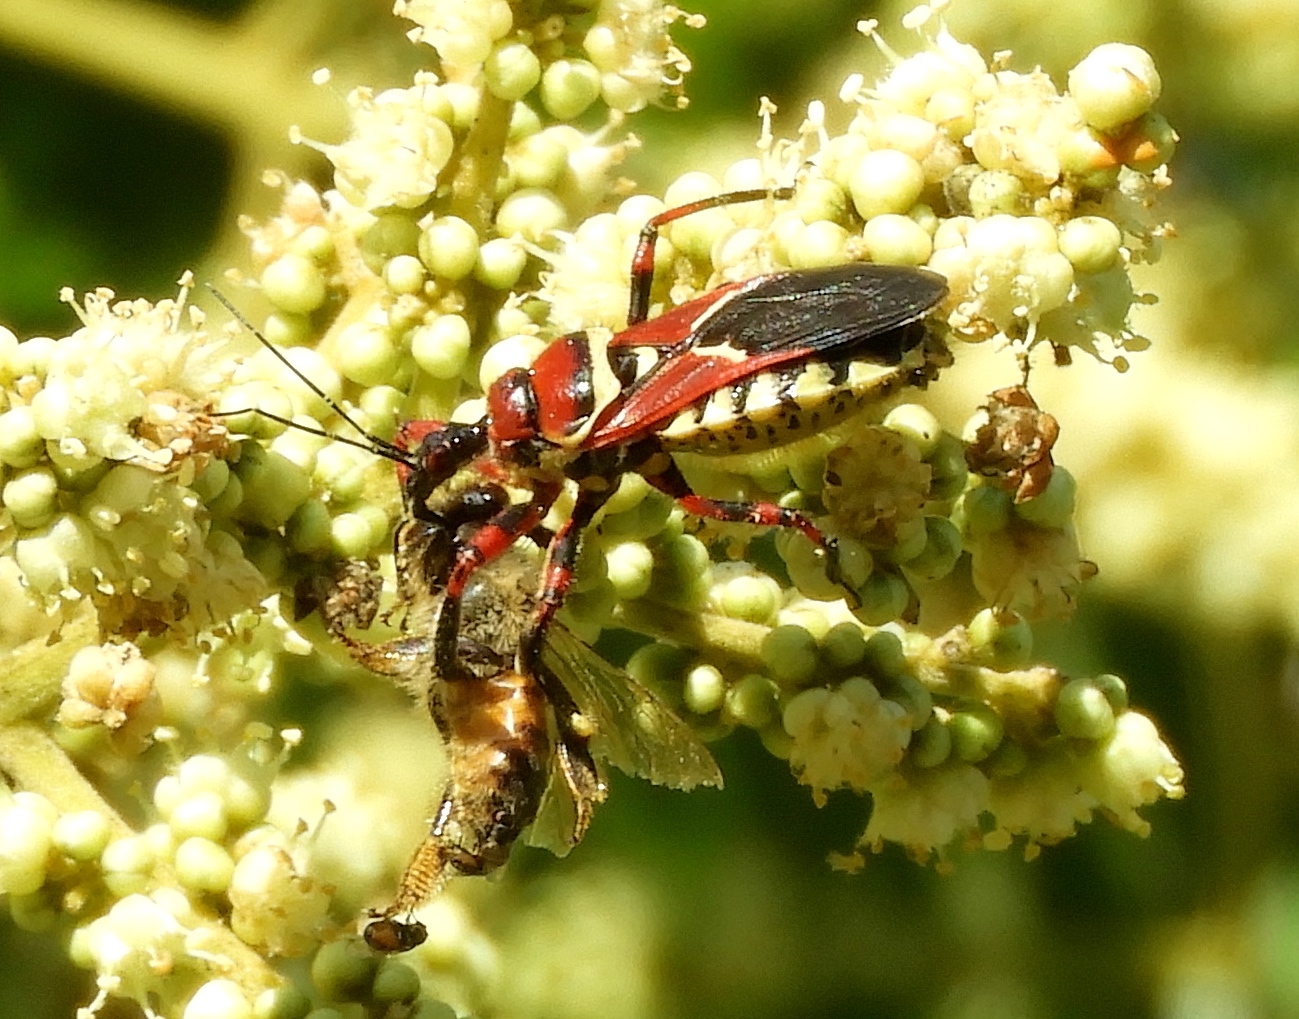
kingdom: Animalia
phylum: Arthropoda
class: Insecta
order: Hemiptera
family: Reduviidae
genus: Apiomerus
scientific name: Apiomerus
